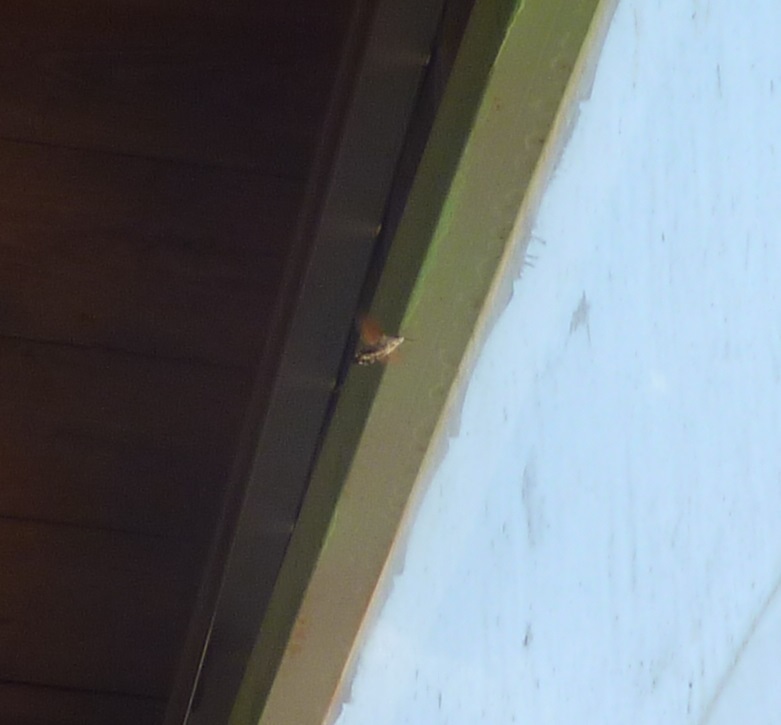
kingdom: Animalia
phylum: Arthropoda
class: Insecta
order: Lepidoptera
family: Sphingidae
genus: Macroglossum
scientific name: Macroglossum stellatarum
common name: Humming-bird hawk-moth
